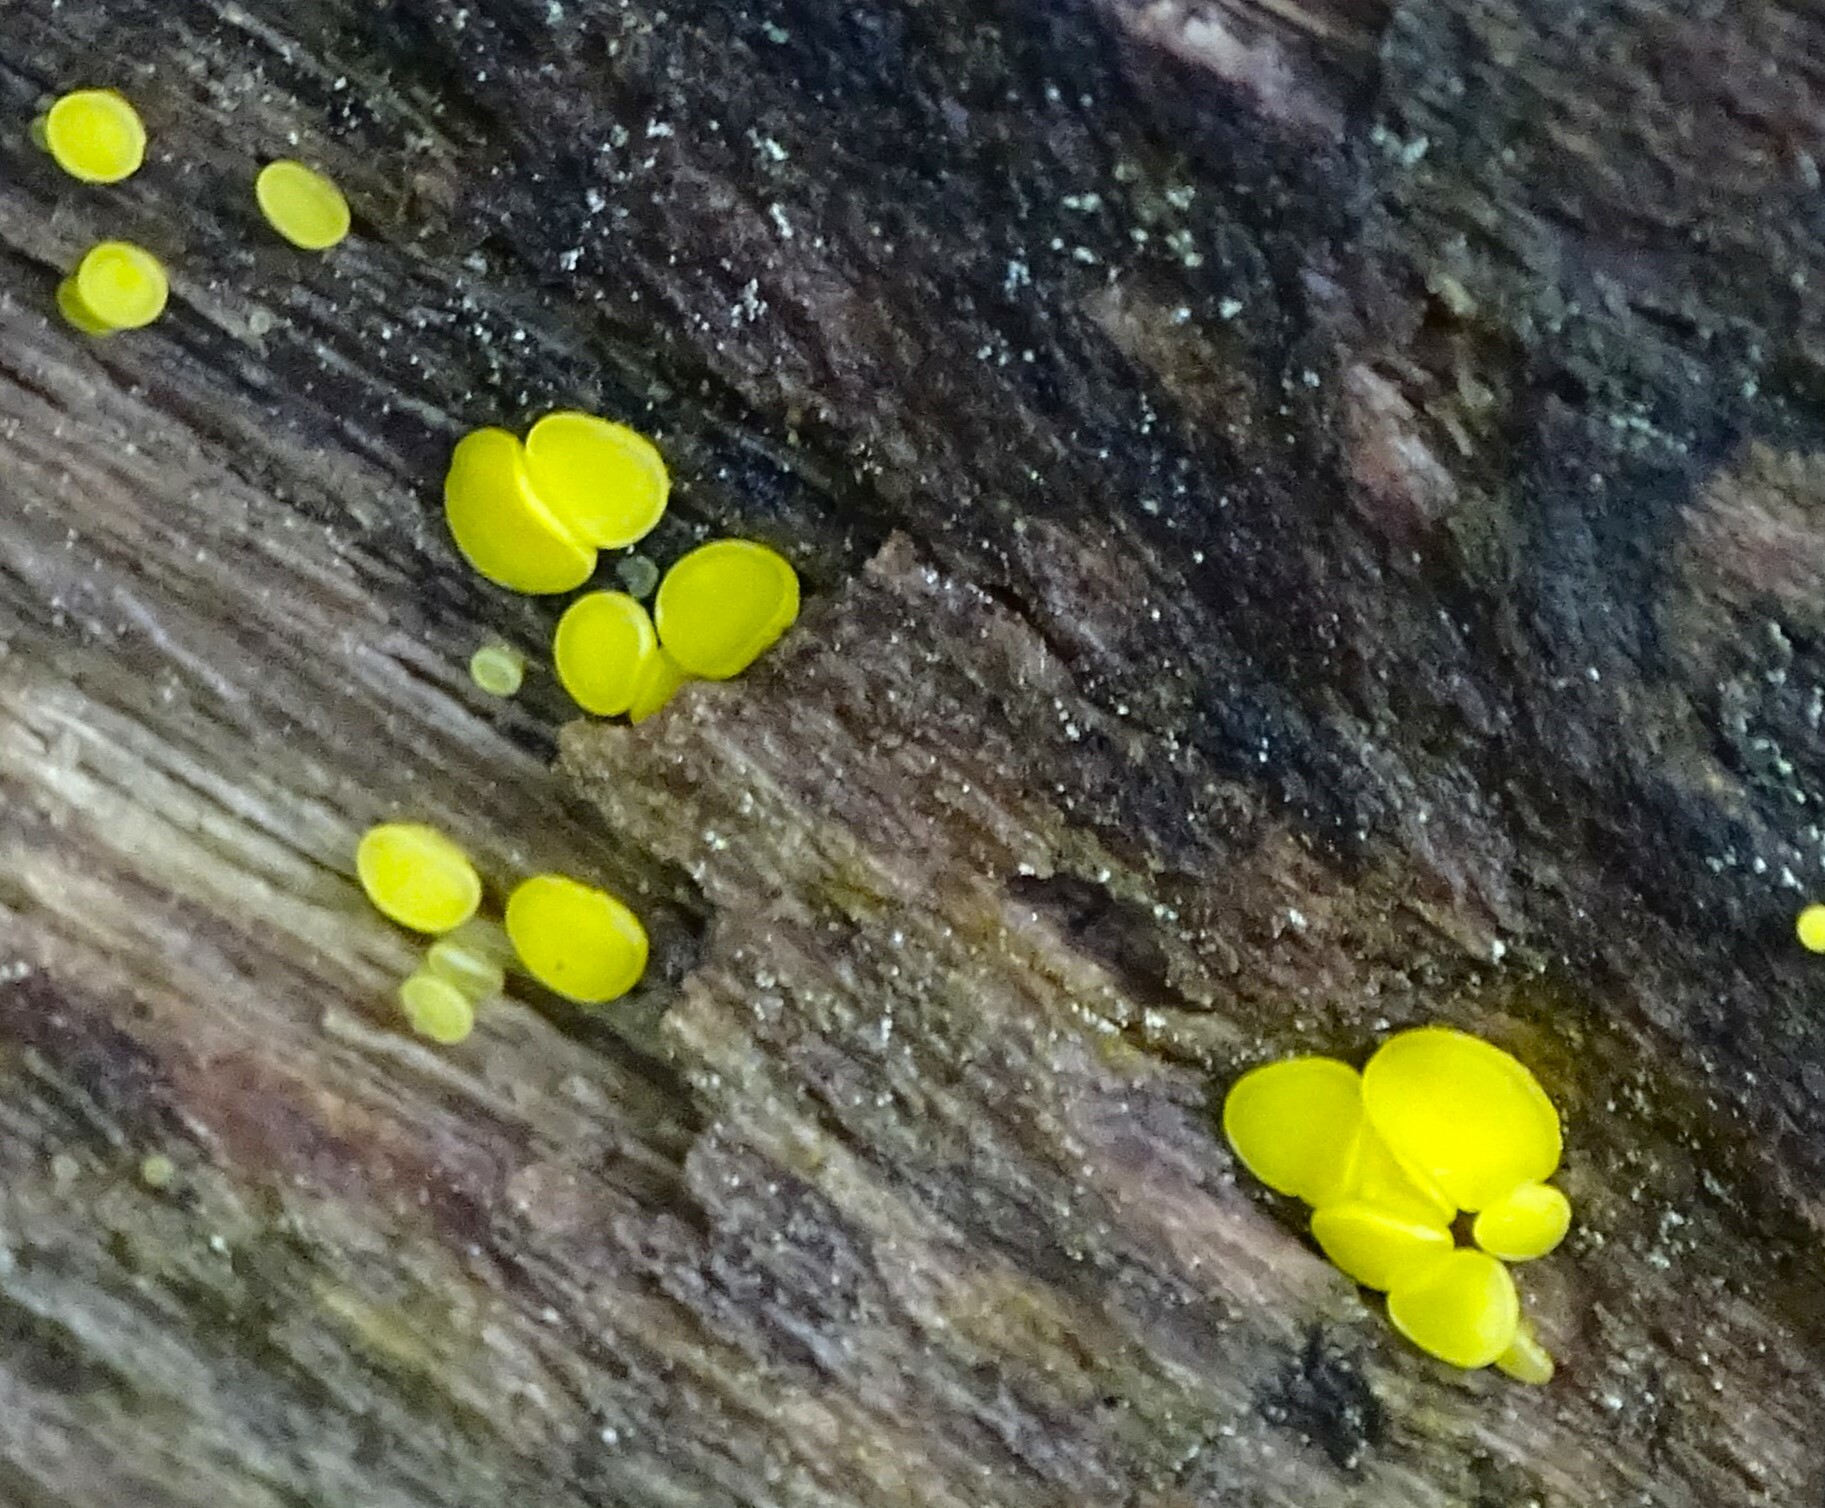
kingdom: Fungi
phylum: Ascomycota
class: Leotiomycetes
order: Helotiales
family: Pezizellaceae
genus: Calycina
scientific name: Calycina citrina
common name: Yellow fairy cups
